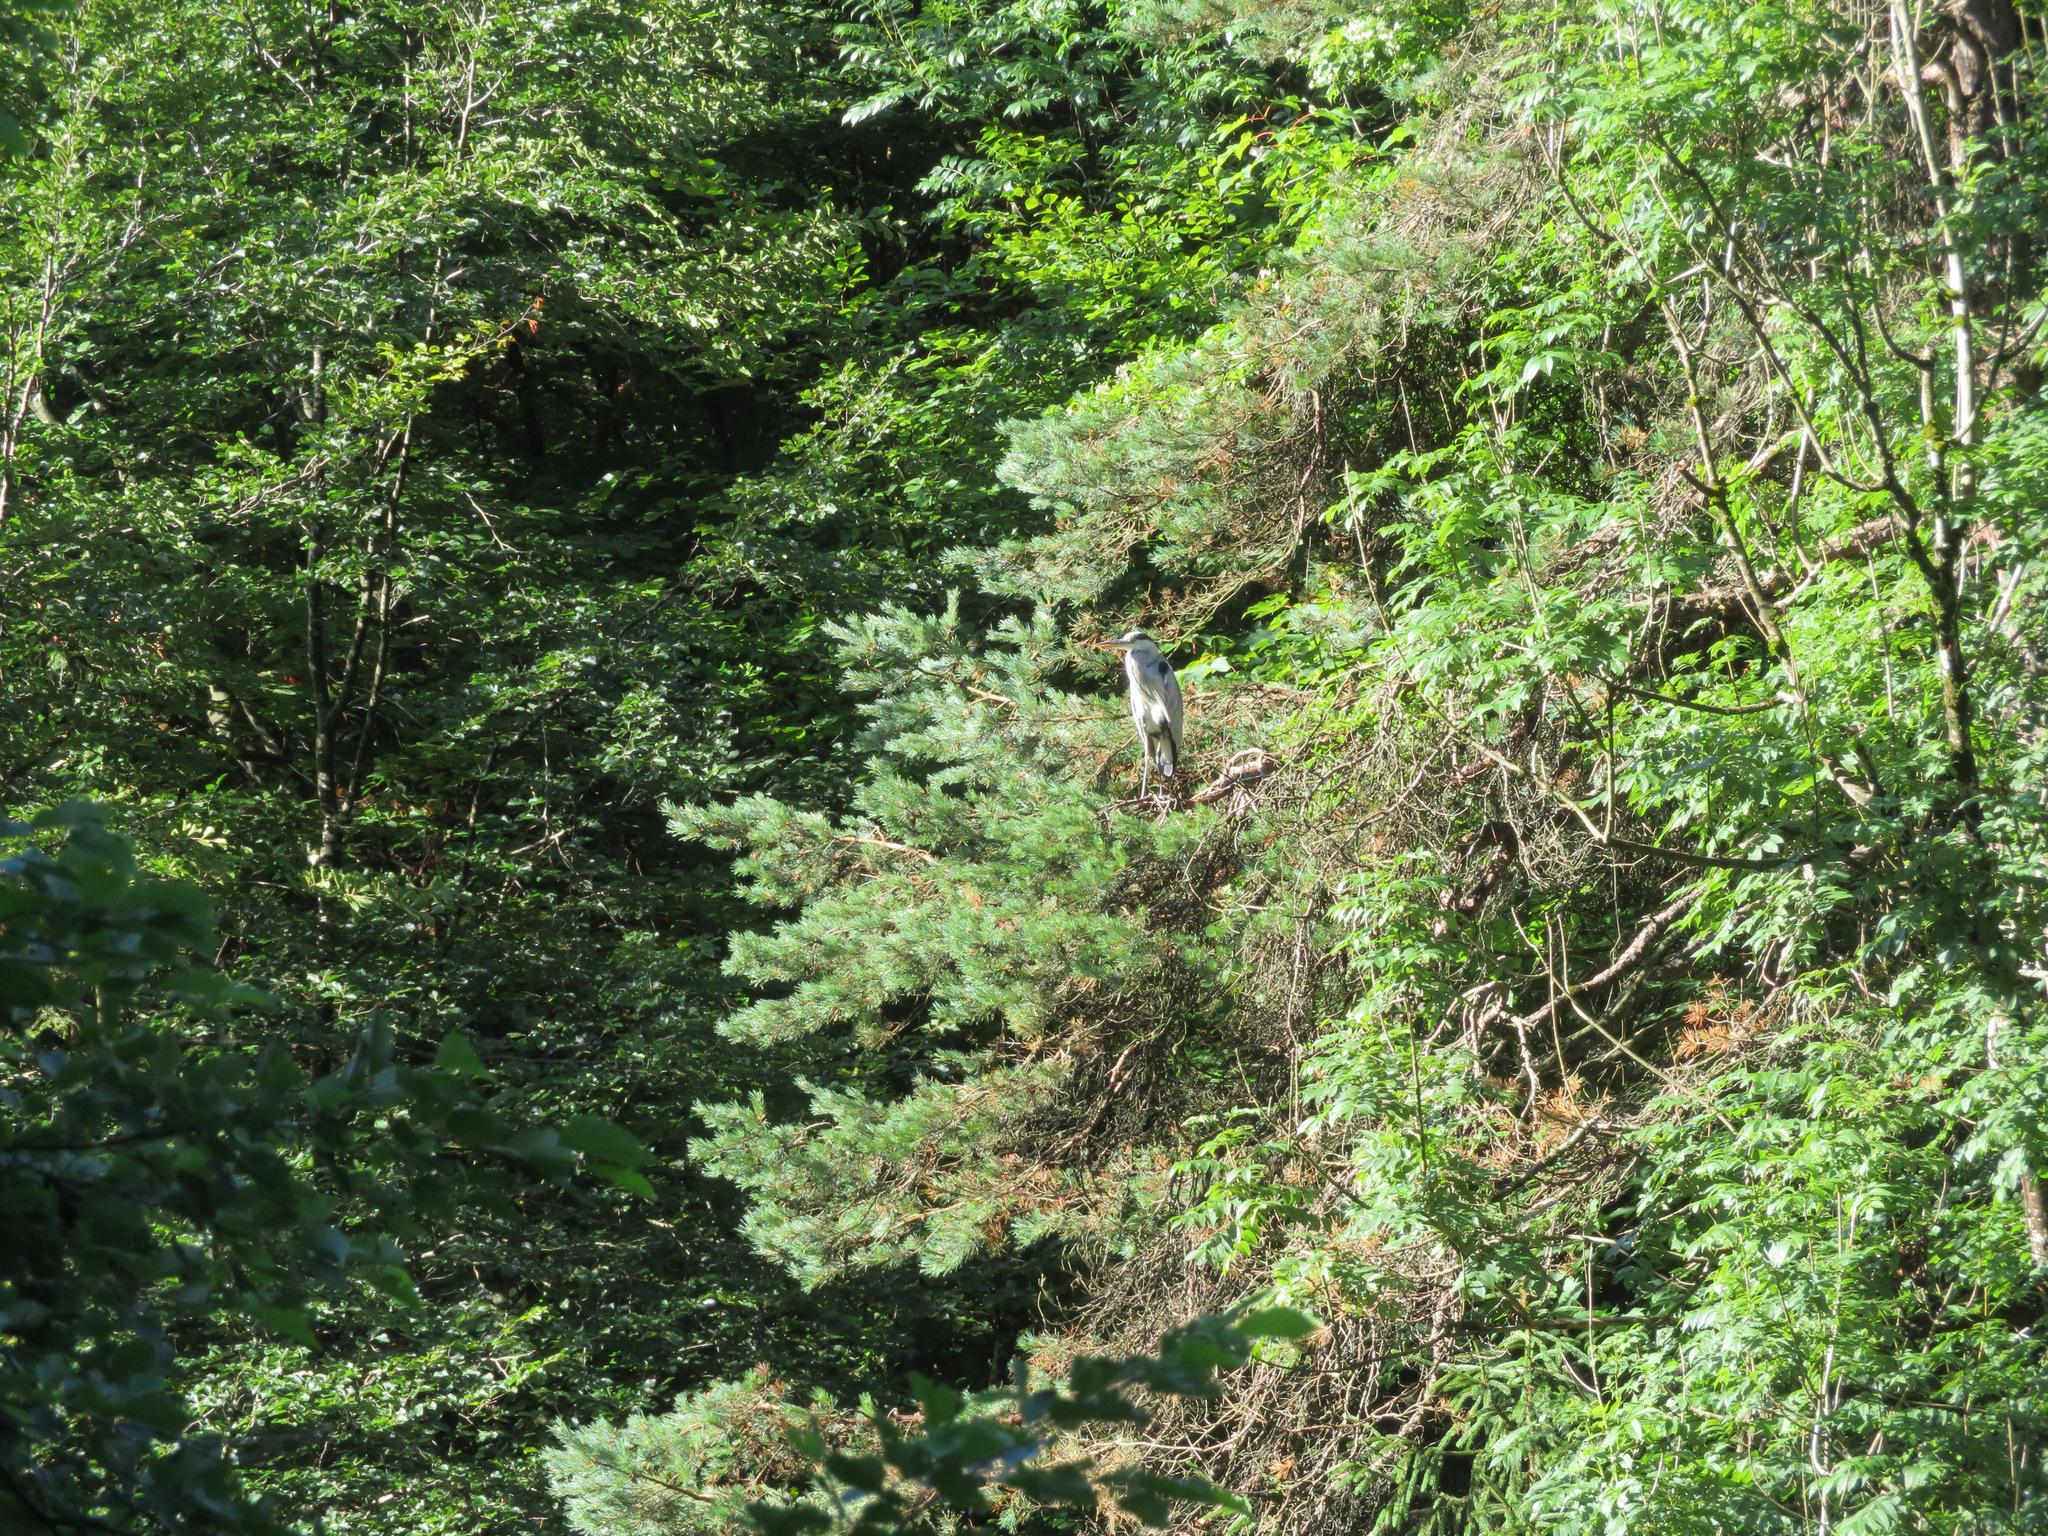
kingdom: Animalia
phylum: Chordata
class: Aves
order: Pelecaniformes
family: Ardeidae
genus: Ardea
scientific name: Ardea cinerea
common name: Grey heron
